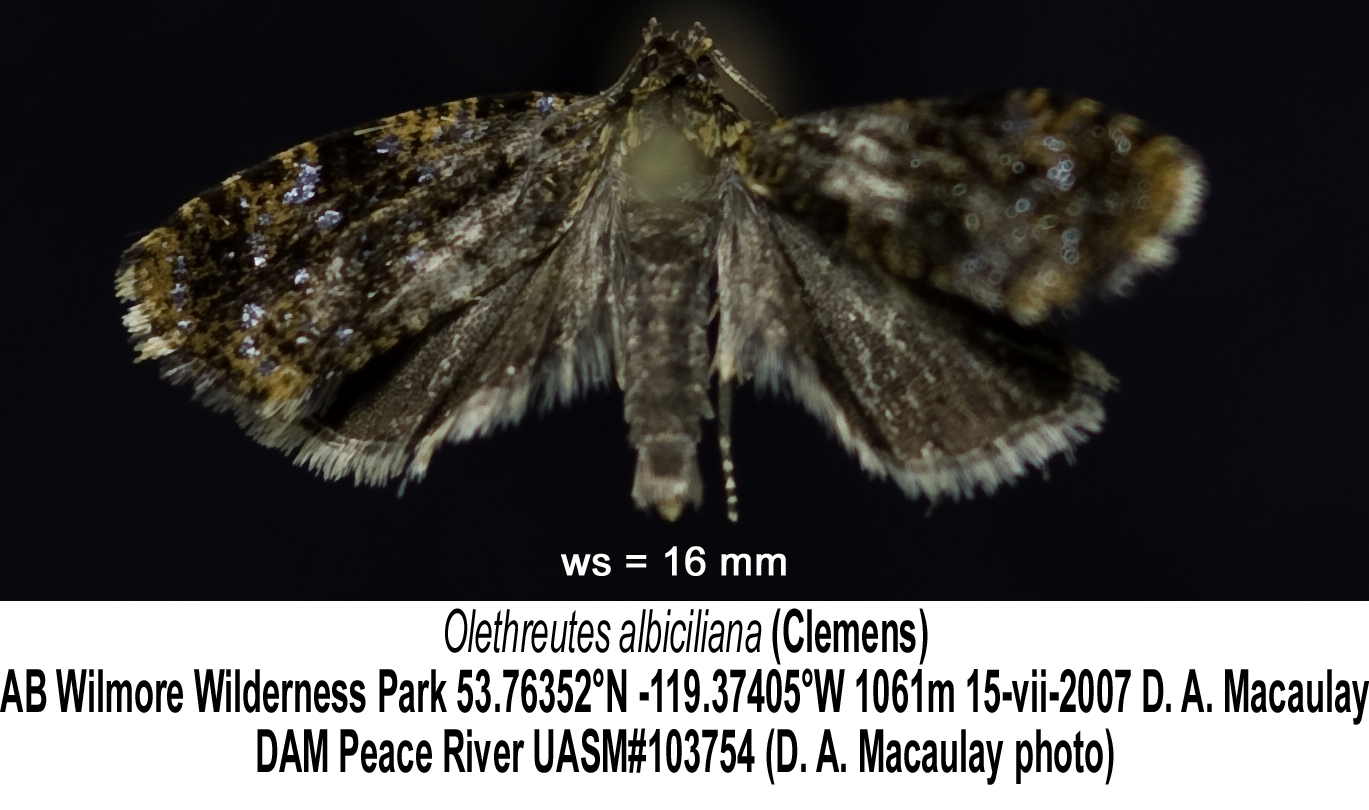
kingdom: Animalia
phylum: Arthropoda
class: Insecta
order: Lepidoptera
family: Tortricidae
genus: Olethreutes
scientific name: Olethreutes albiciliana
